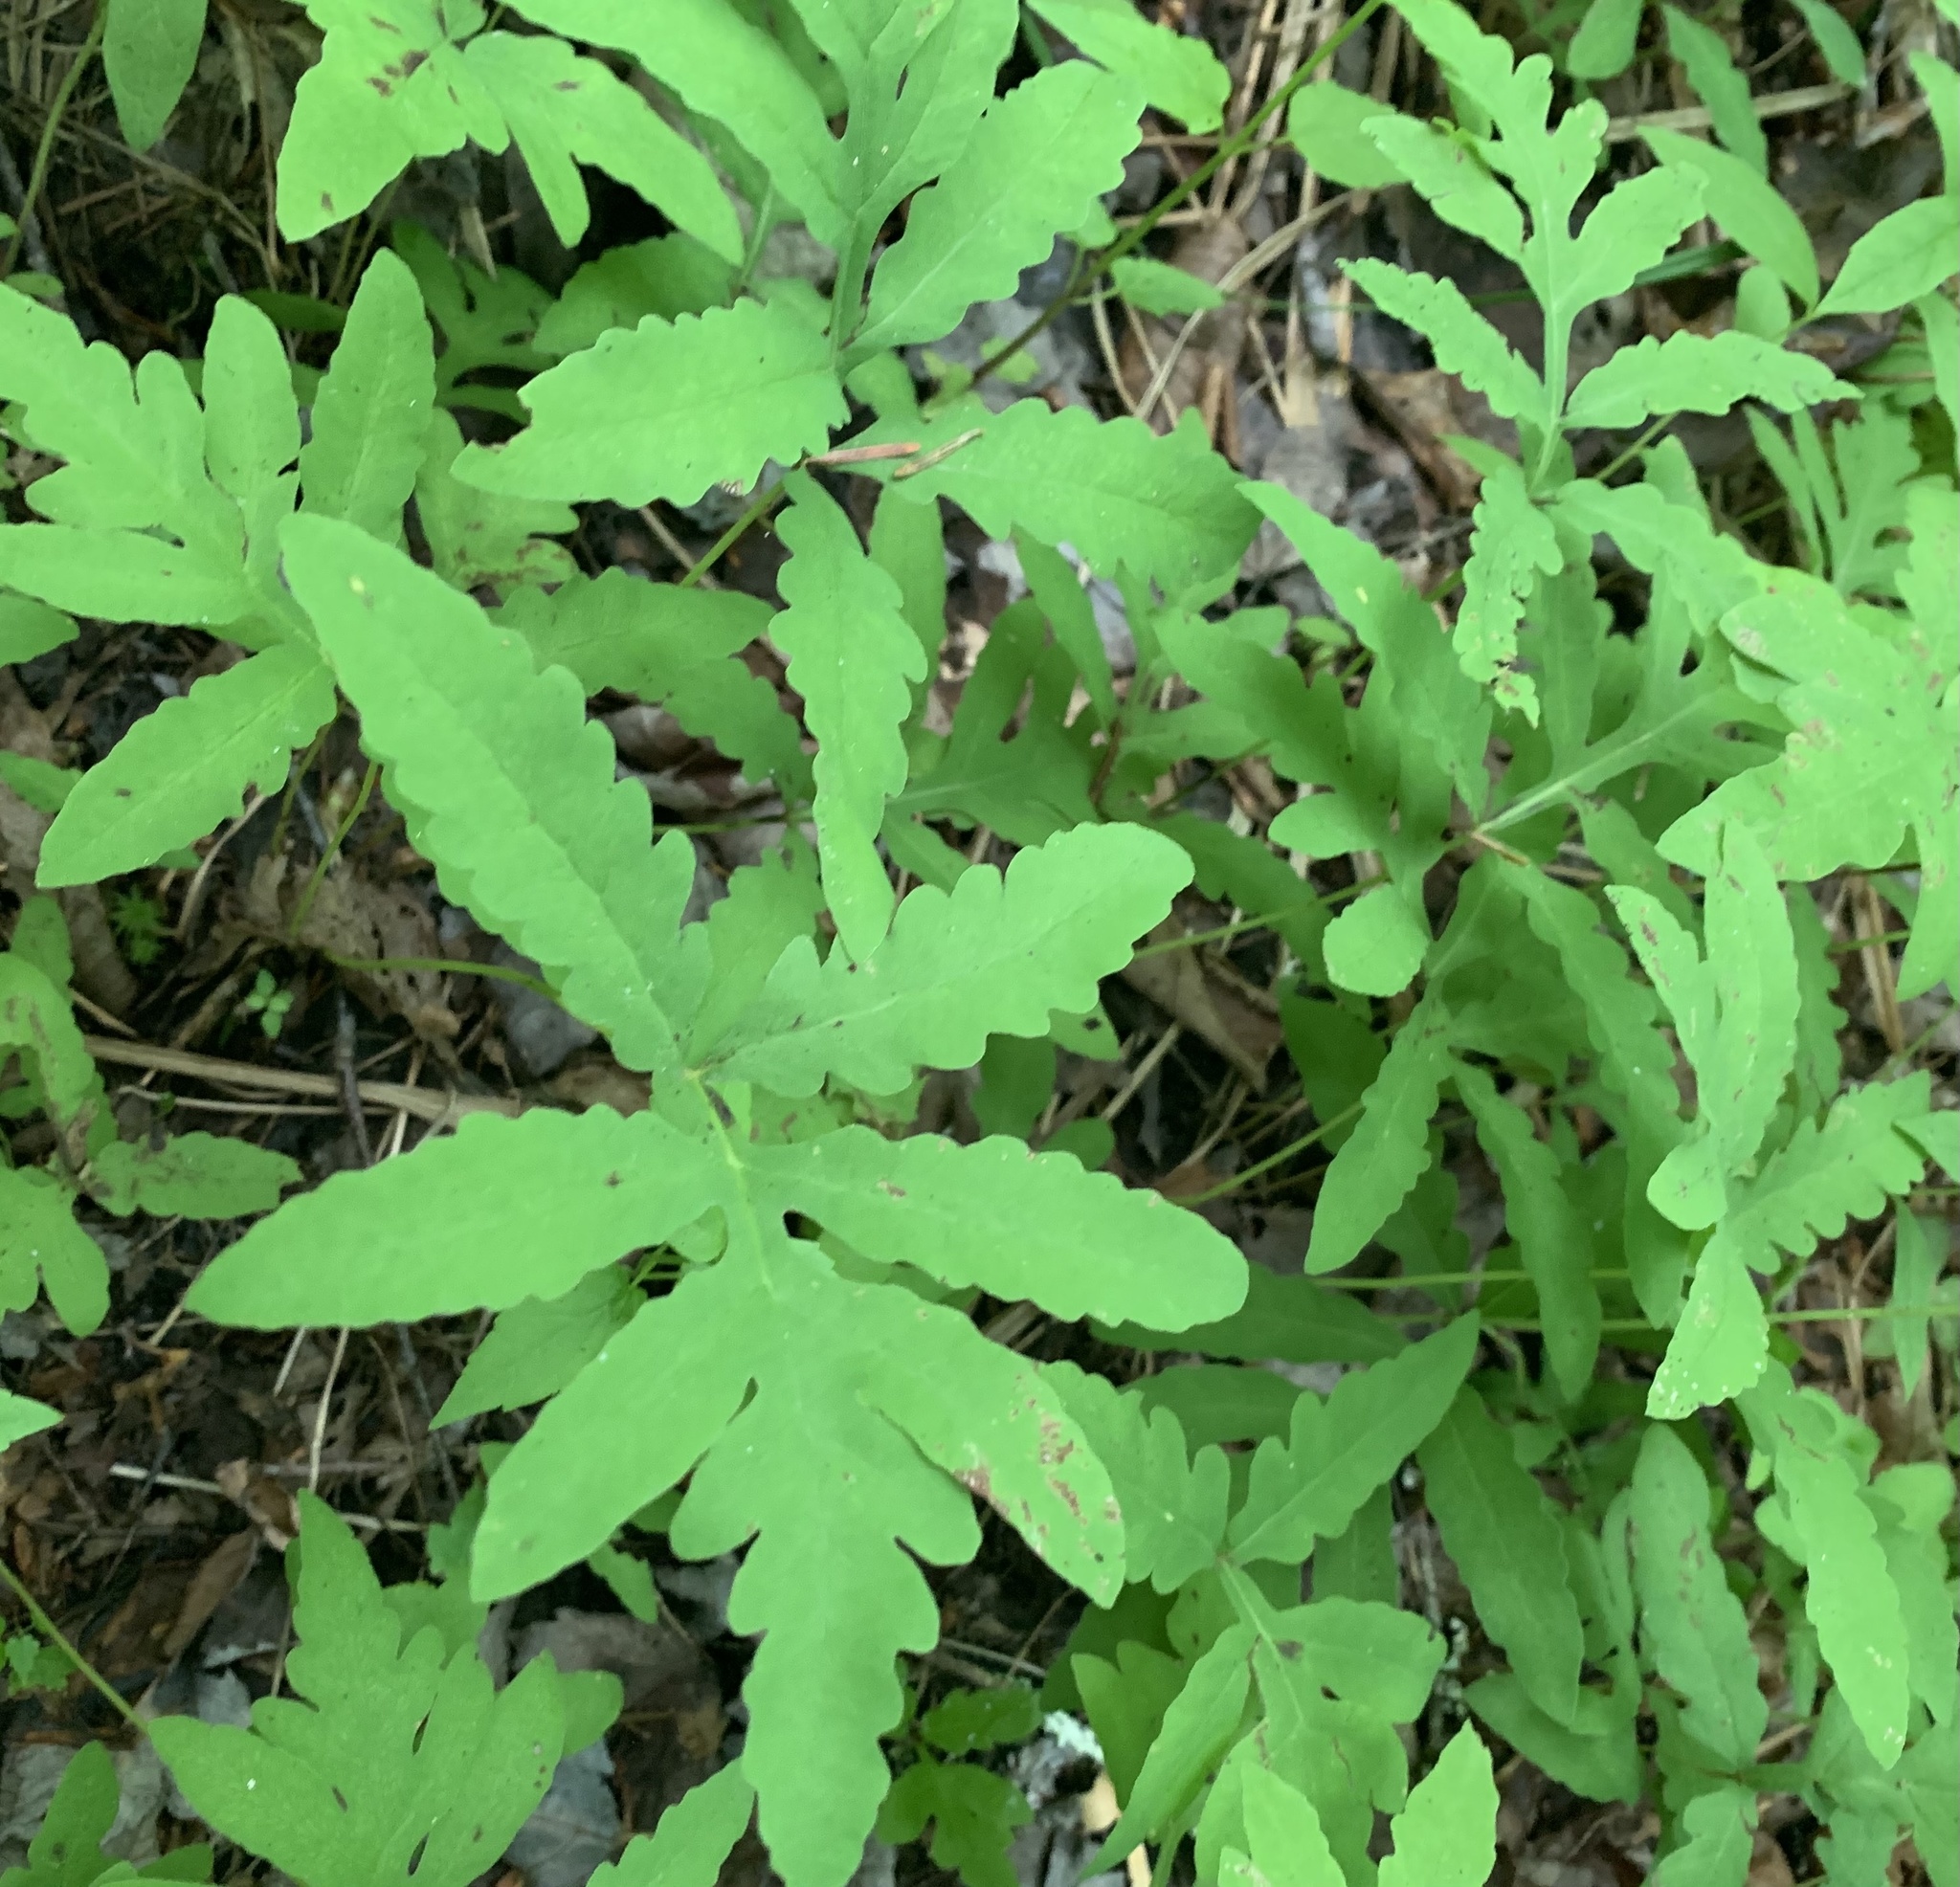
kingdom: Plantae
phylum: Tracheophyta
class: Polypodiopsida
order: Polypodiales
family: Onocleaceae
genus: Onoclea
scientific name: Onoclea sensibilis
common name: Sensitive fern
